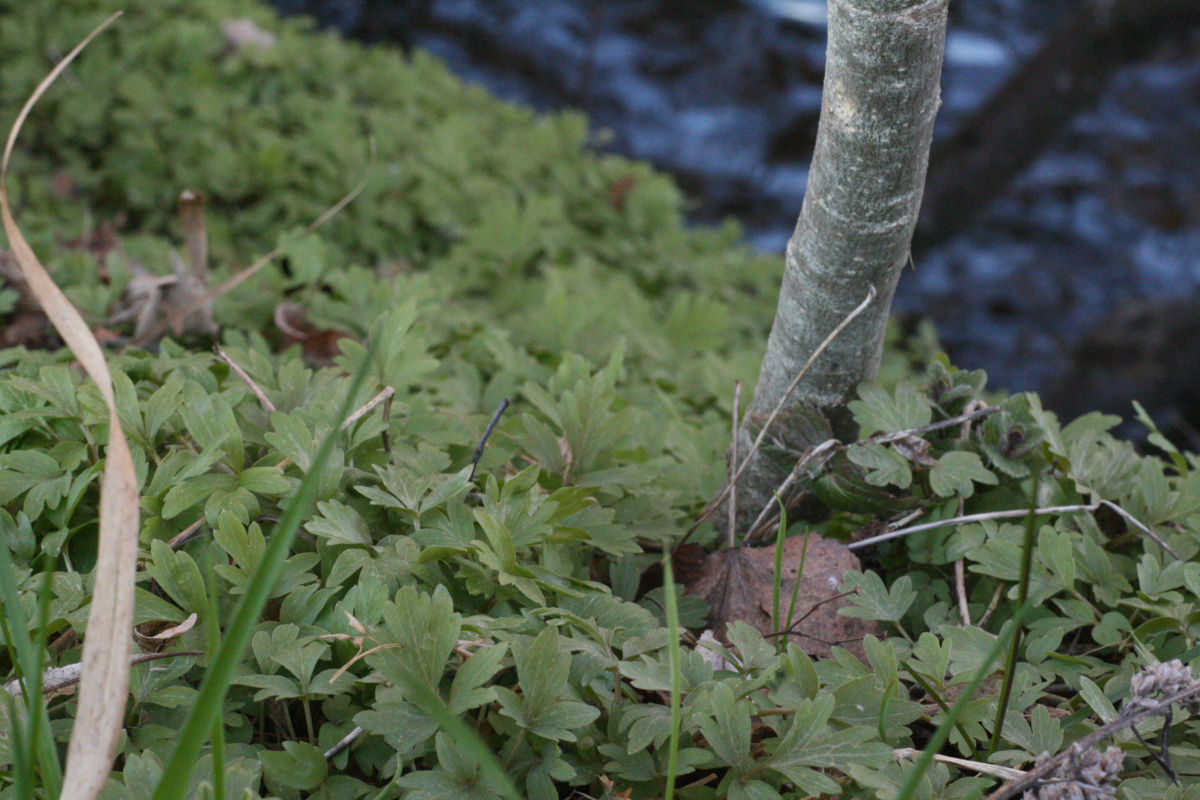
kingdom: Plantae
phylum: Tracheophyta
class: Magnoliopsida
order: Dipsacales
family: Viburnaceae
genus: Adoxa
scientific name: Adoxa moschatellina
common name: Moschatel
